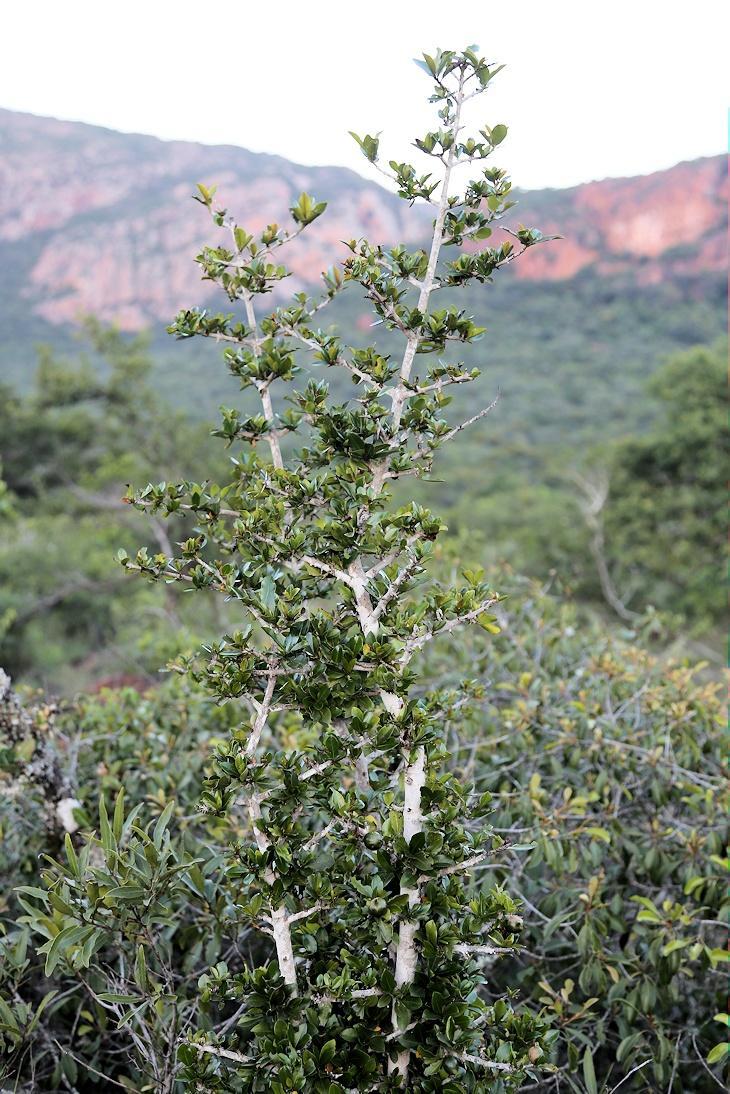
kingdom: Plantae
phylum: Tracheophyta
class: Magnoliopsida
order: Gentianales
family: Rubiaceae
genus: Hyperacanthus
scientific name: Hyperacanthus amoenus
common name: Spiny gardenia
